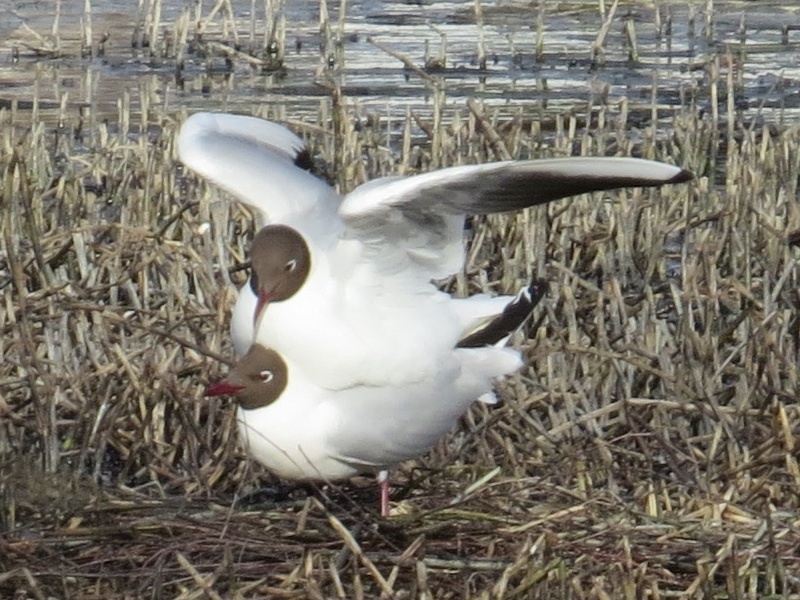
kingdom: Animalia
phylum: Chordata
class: Aves
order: Charadriiformes
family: Laridae
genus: Chroicocephalus
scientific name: Chroicocephalus ridibundus
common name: Black-headed gull
